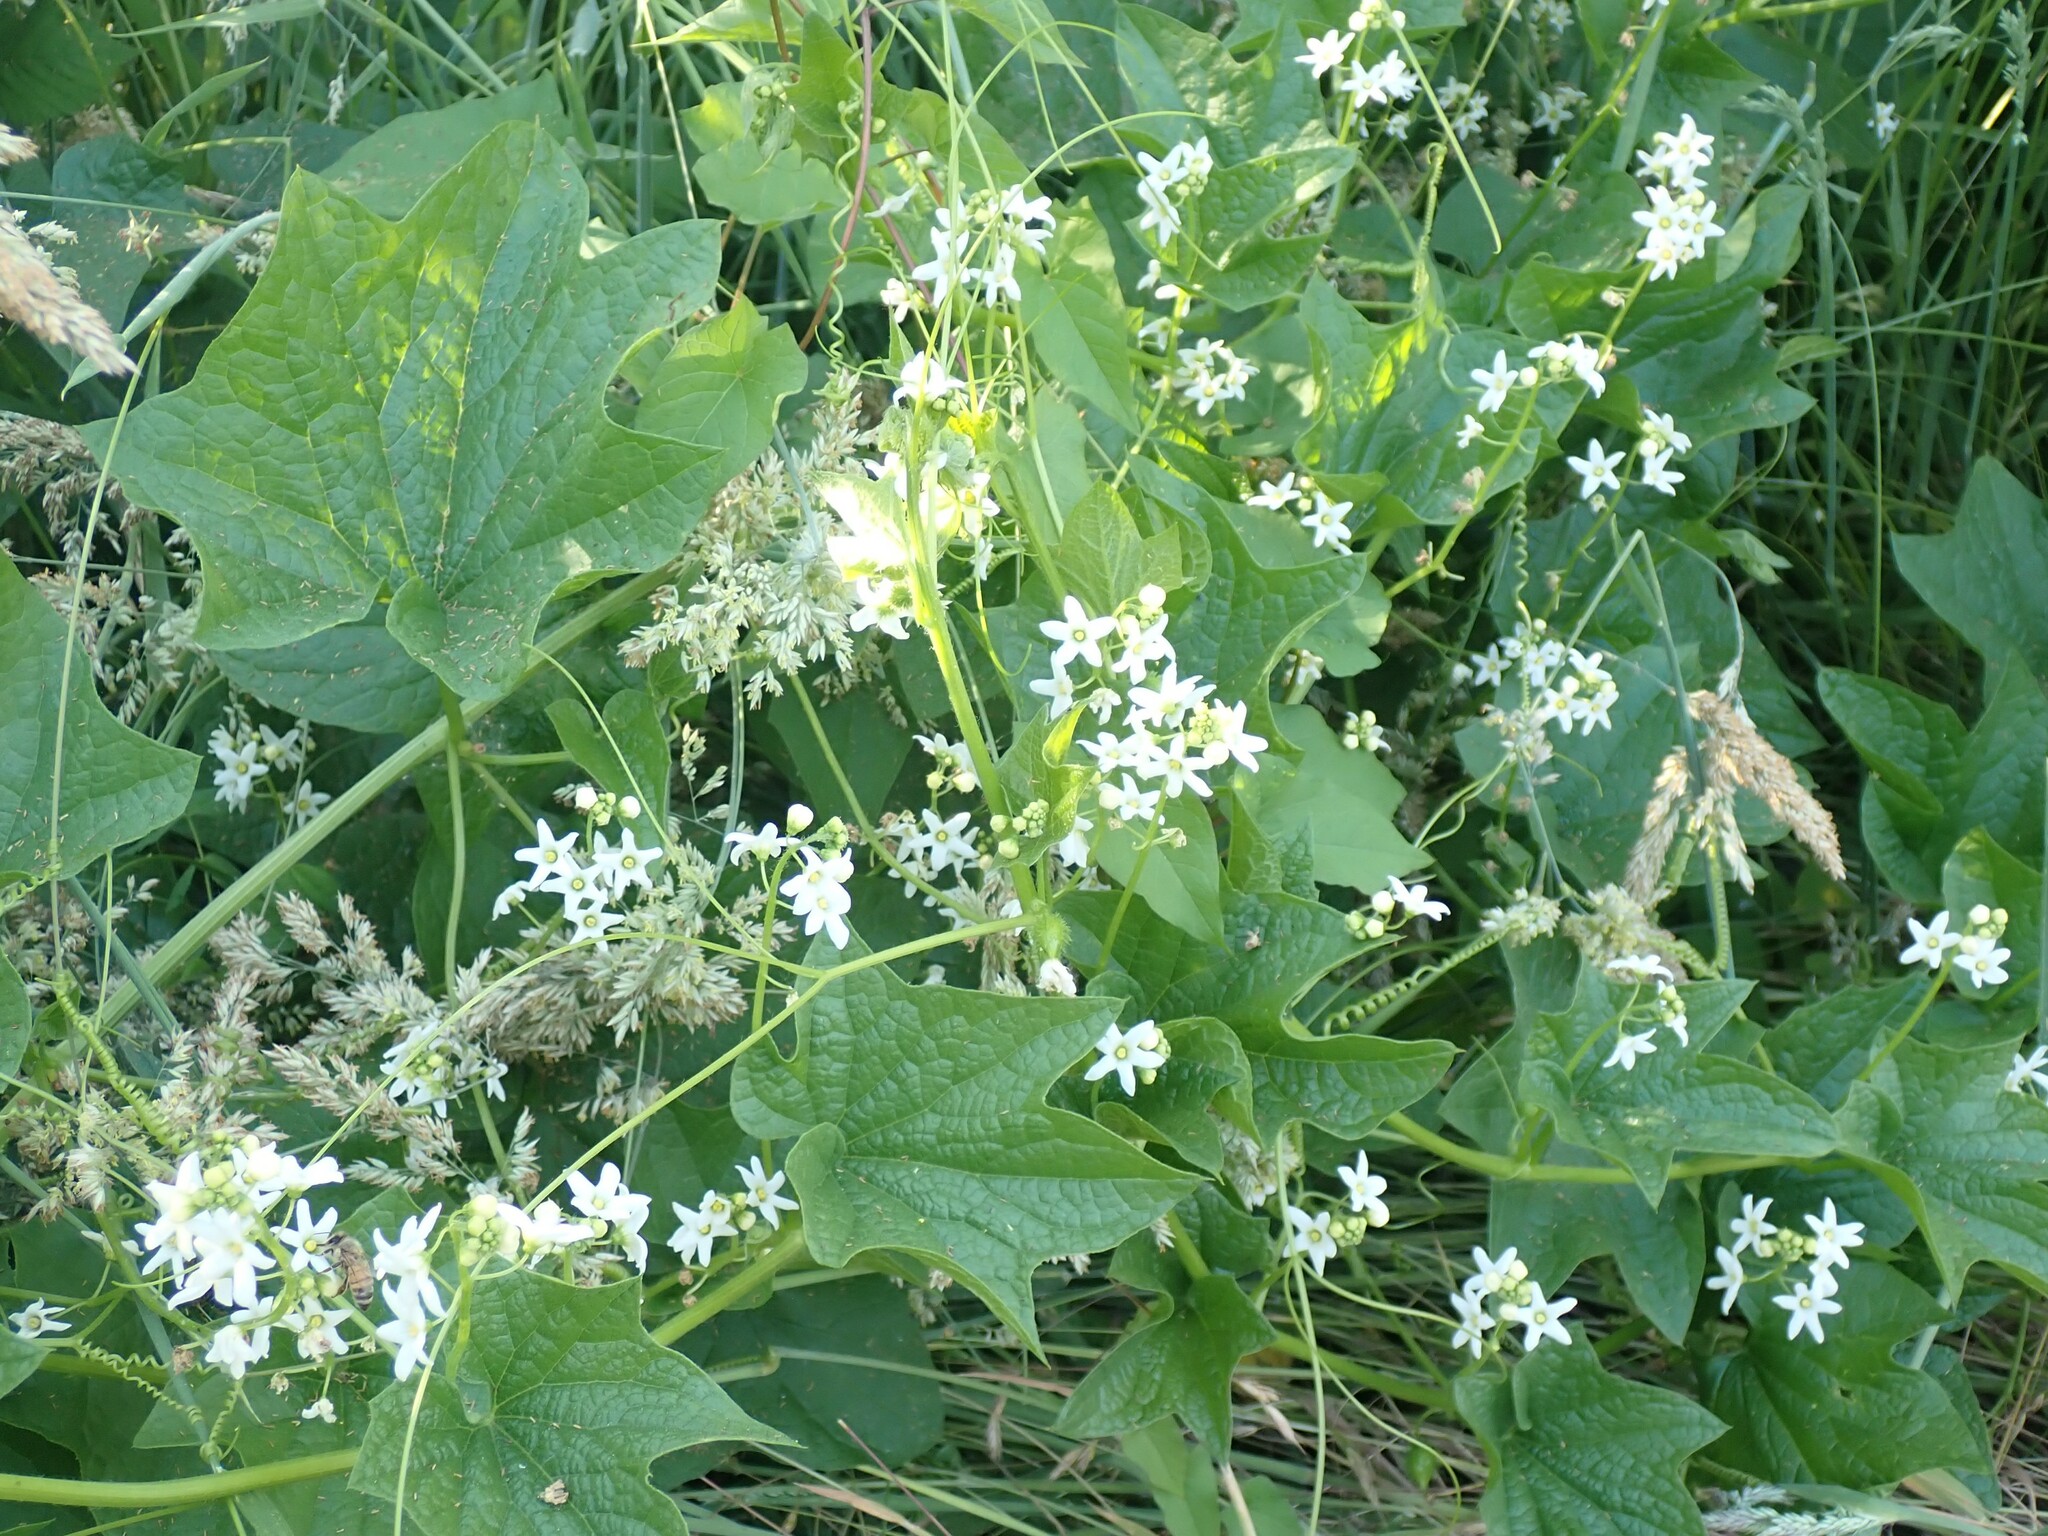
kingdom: Plantae
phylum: Tracheophyta
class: Magnoliopsida
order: Cucurbitales
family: Cucurbitaceae
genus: Marah
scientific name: Marah oregana
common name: Coastal manroot
